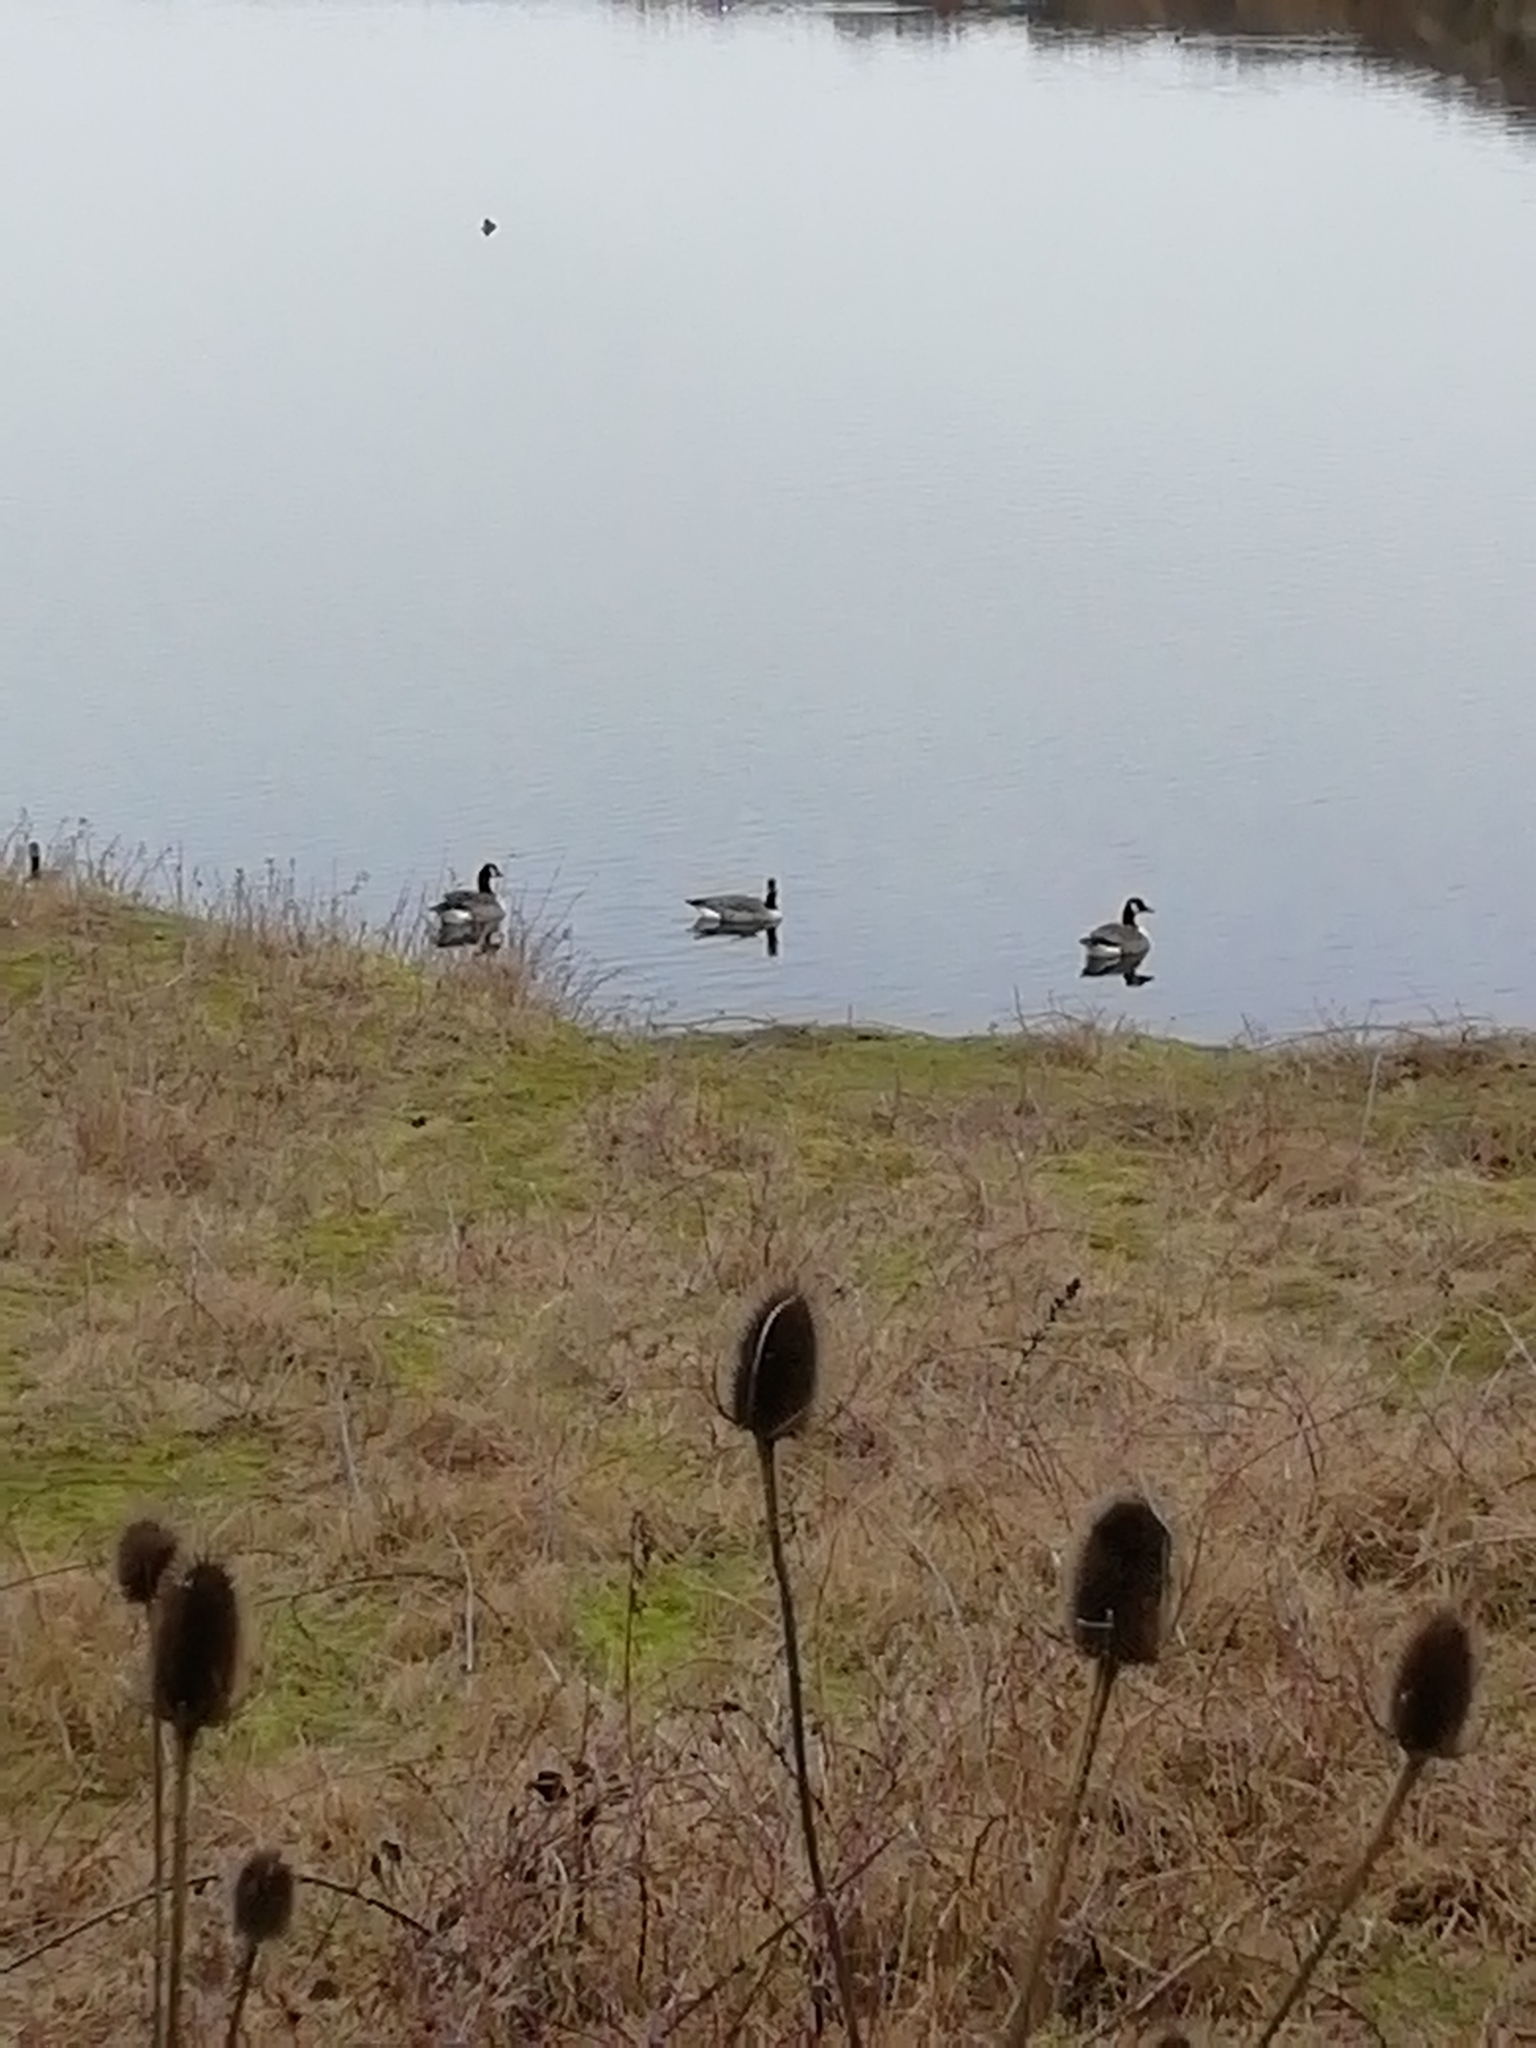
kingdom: Animalia
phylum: Chordata
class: Aves
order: Anseriformes
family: Anatidae
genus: Branta
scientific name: Branta canadensis
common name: Canada goose
